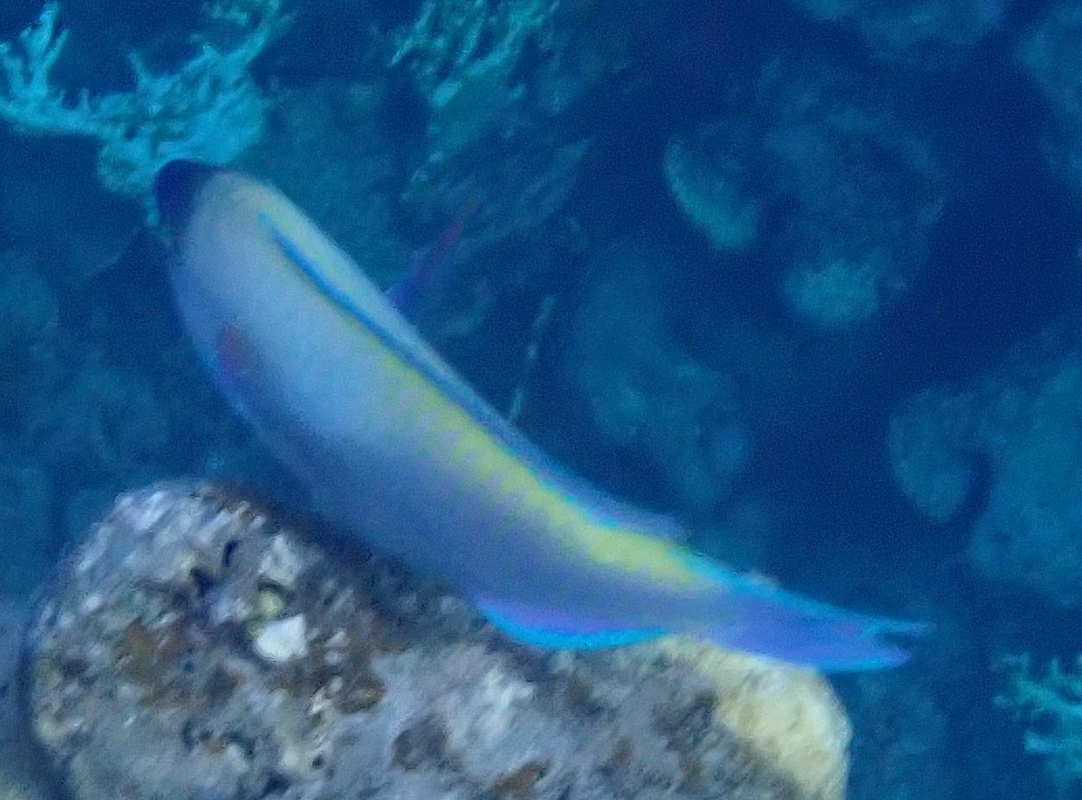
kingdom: Animalia
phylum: Chordata
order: Perciformes
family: Scaridae
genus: Scarus
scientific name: Scarus psittacus
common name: Palenose parrotfish
